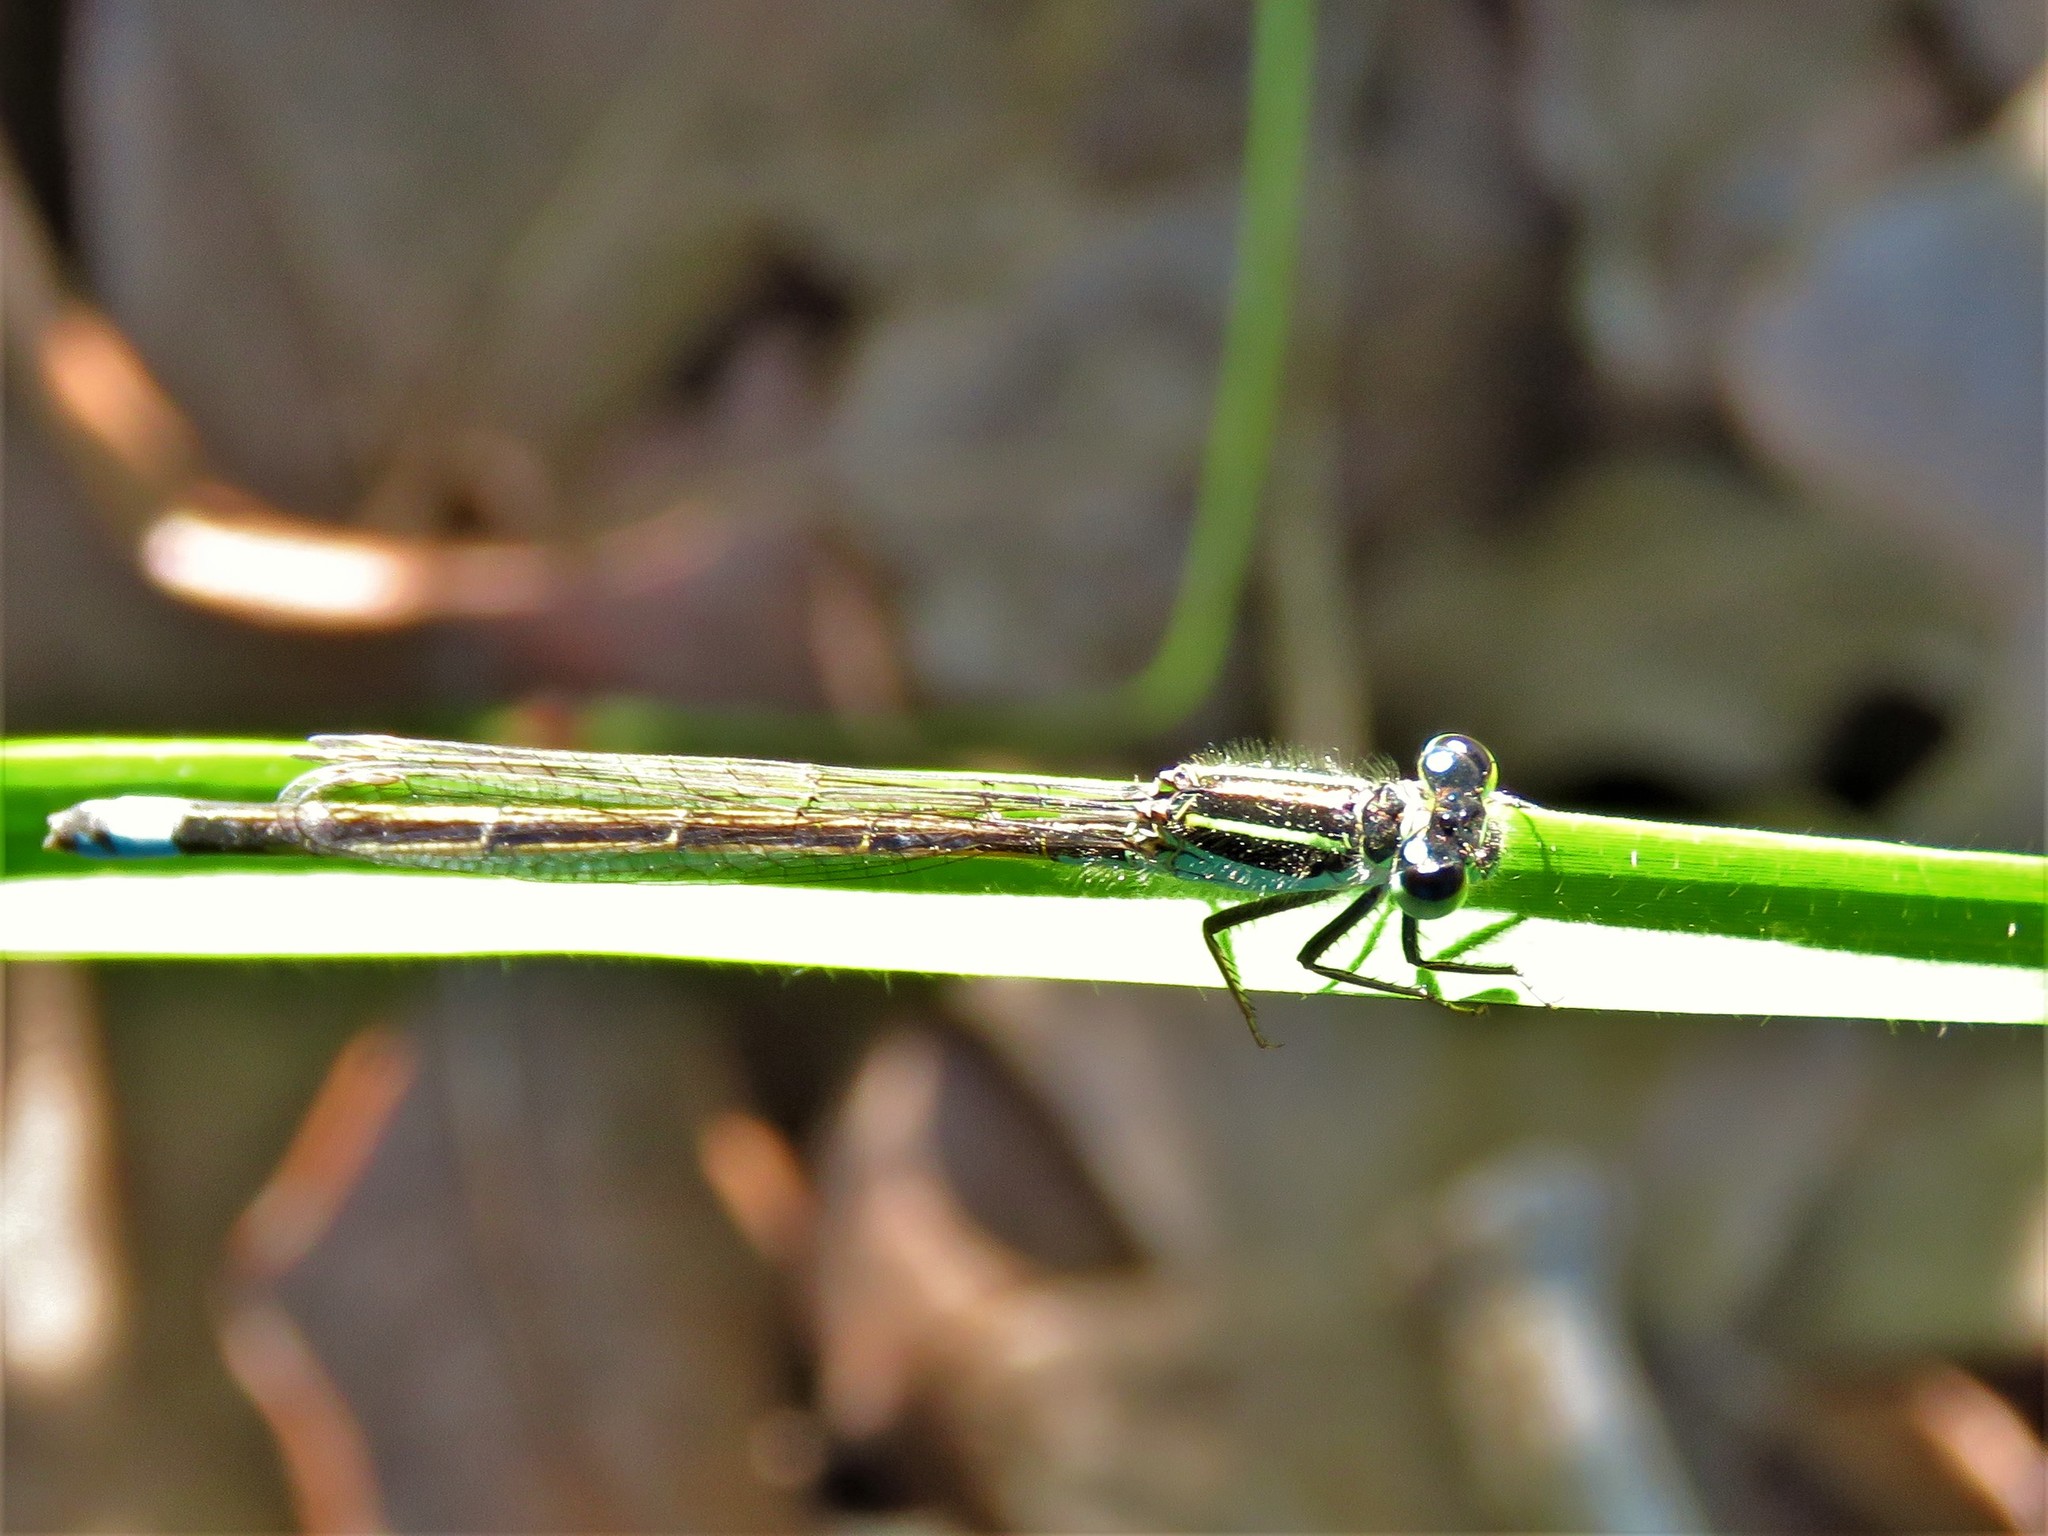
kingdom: Animalia
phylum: Arthropoda
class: Insecta
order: Odonata
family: Coenagrionidae
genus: Ischnura
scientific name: Ischnura ramburii
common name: Rambur's forktail
